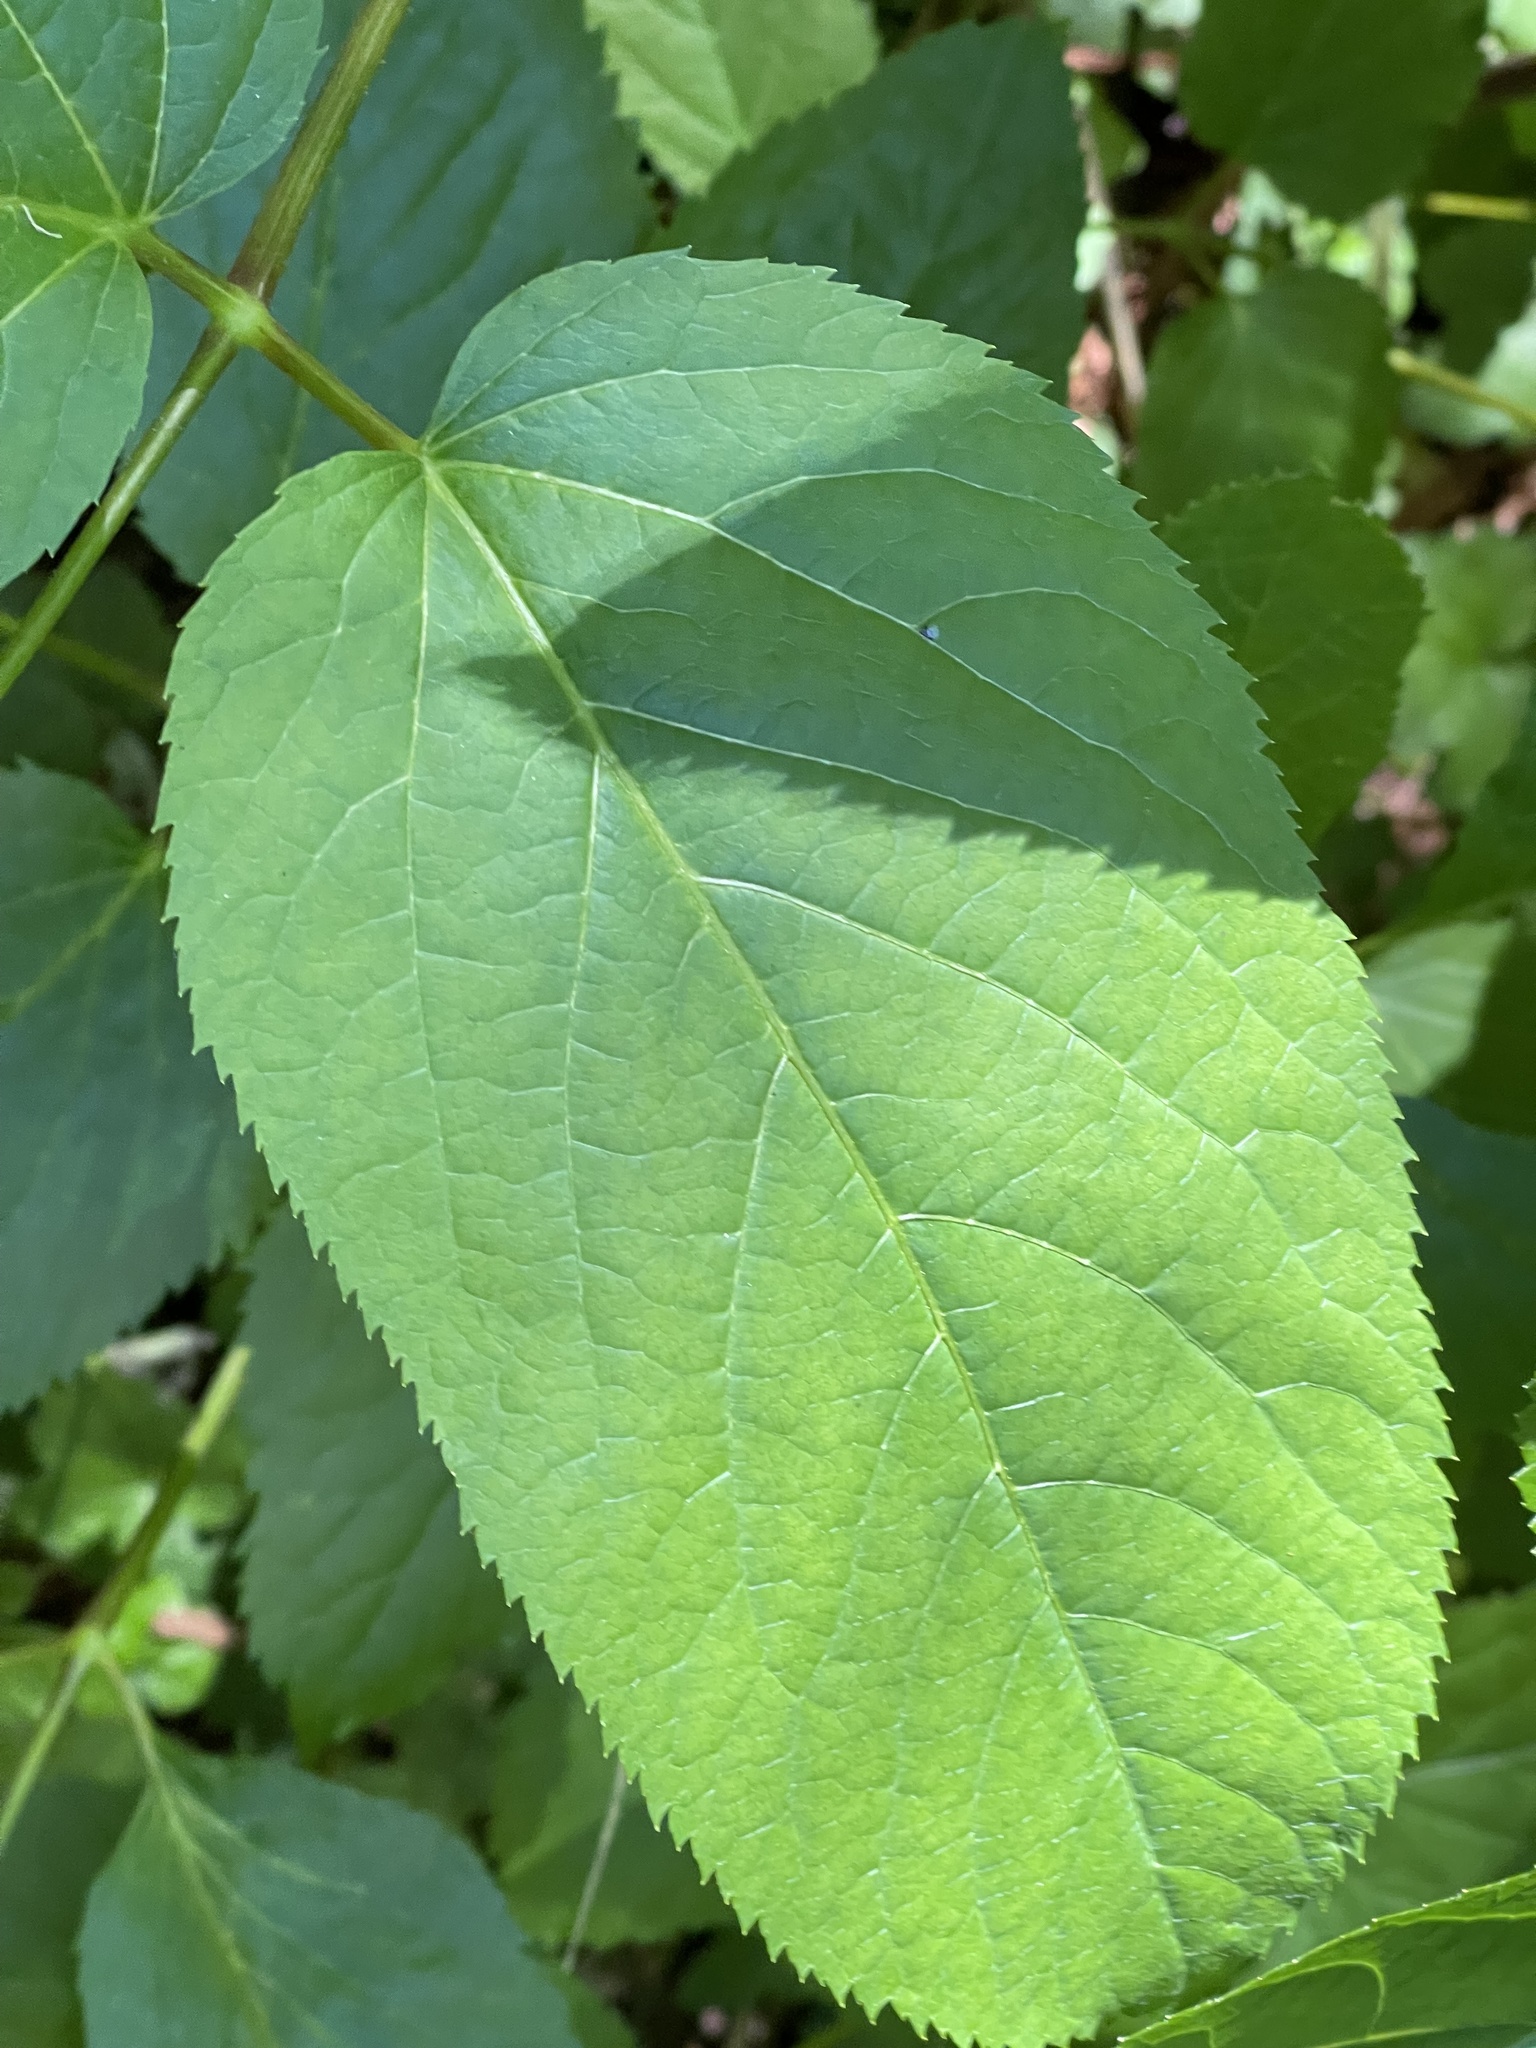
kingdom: Plantae
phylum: Tracheophyta
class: Magnoliopsida
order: Apiales
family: Araliaceae
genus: Aralia
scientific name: Aralia californica
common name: California-ginseng
